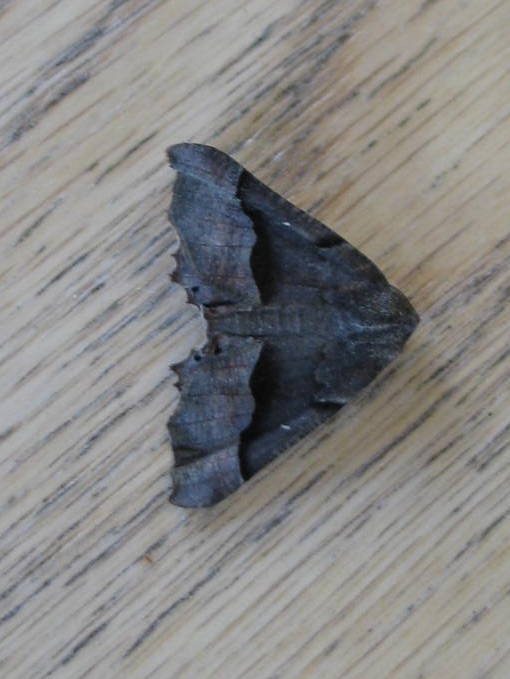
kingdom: Animalia
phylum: Arthropoda
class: Insecta
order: Lepidoptera
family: Geometridae
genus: Pero
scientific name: Pero honestaria
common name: Honest pero
